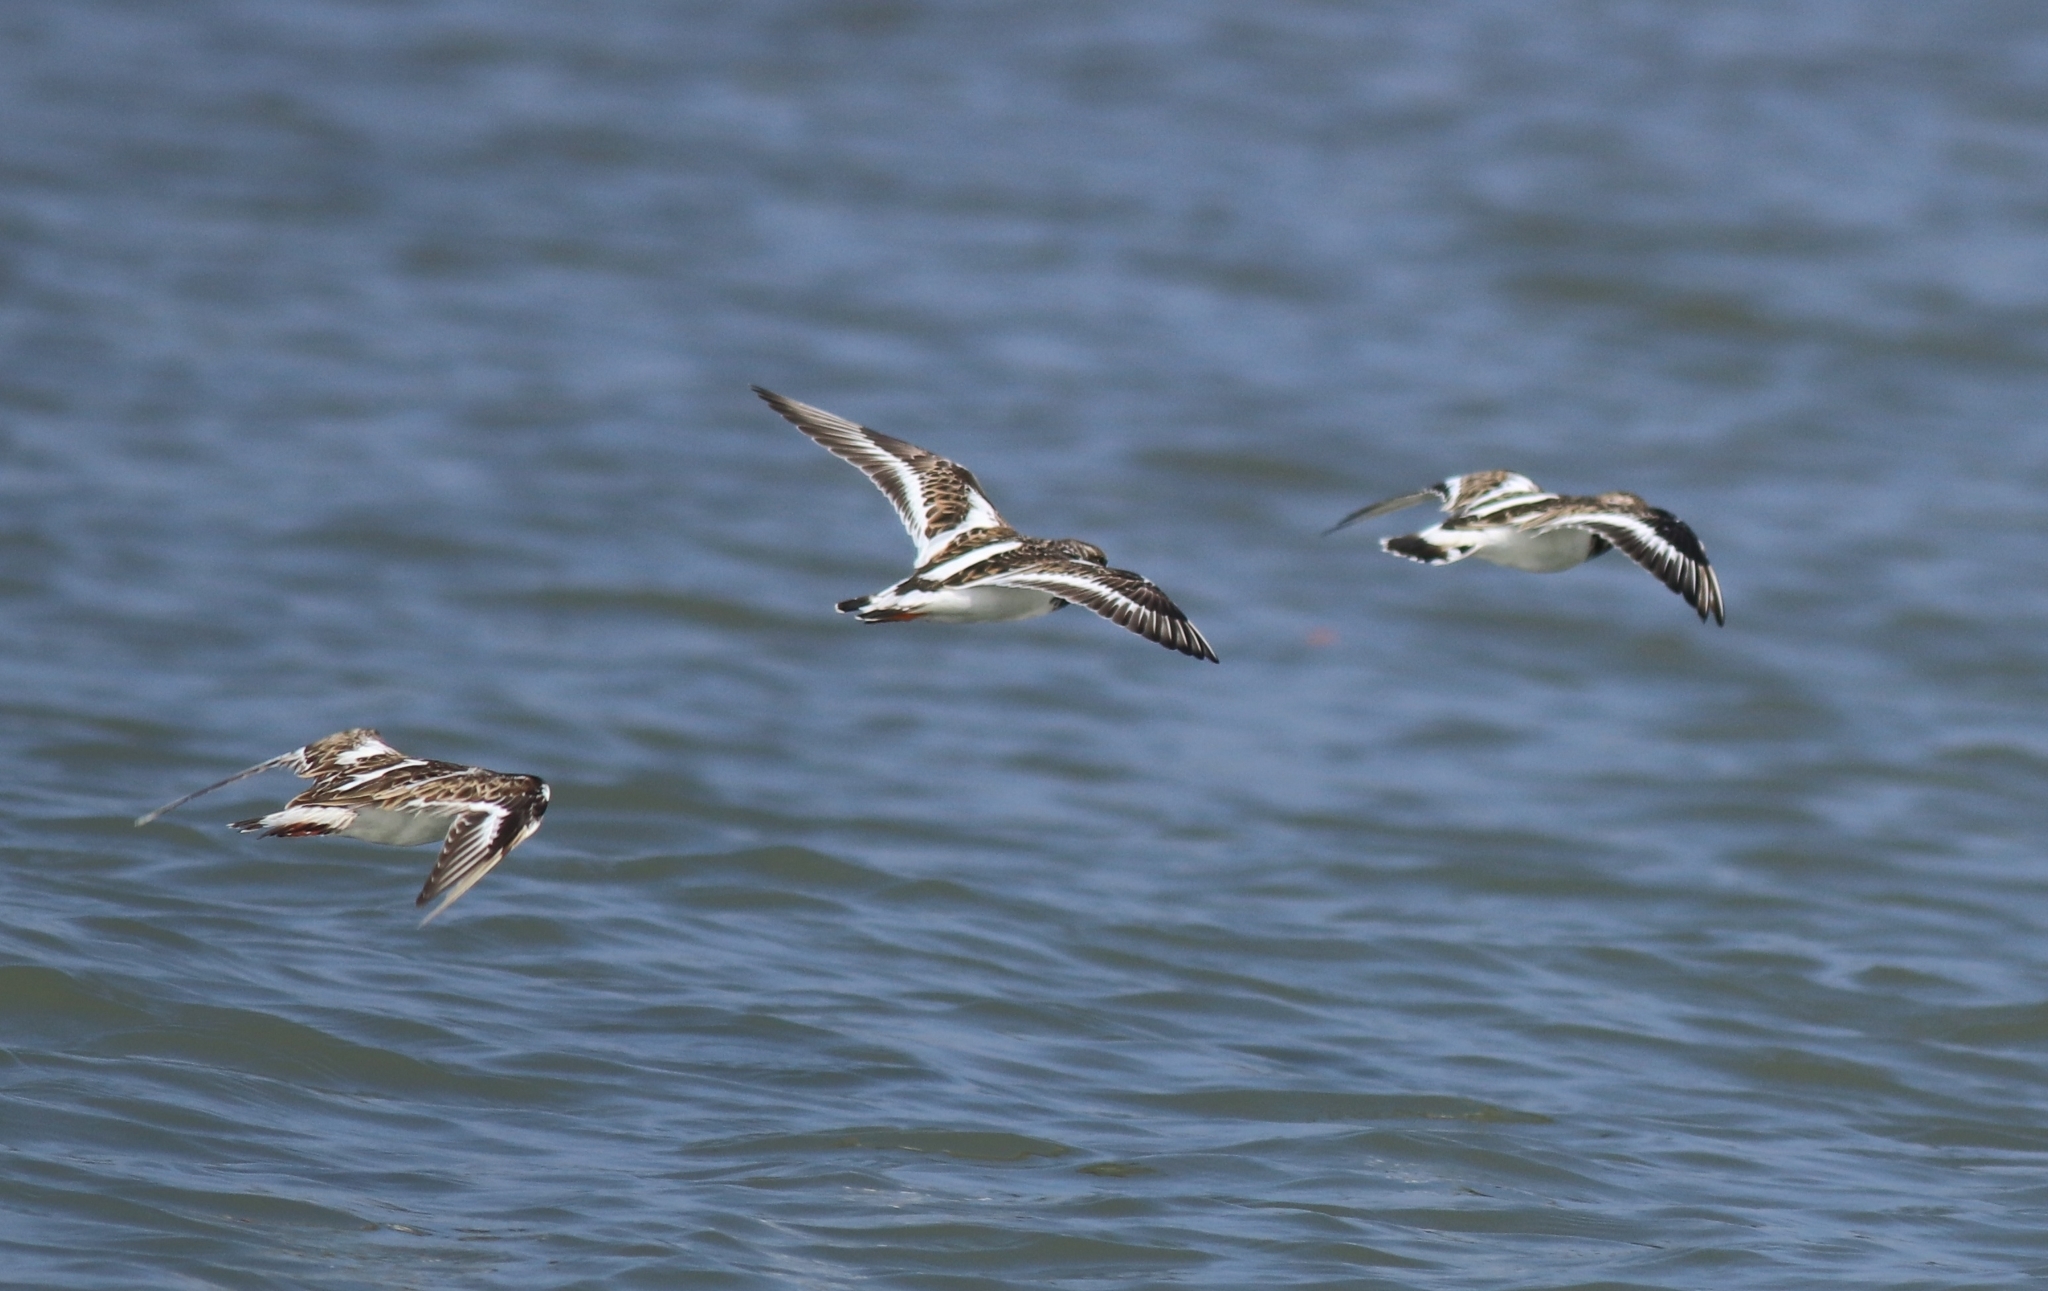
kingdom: Animalia
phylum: Chordata
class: Aves
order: Charadriiformes
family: Scolopacidae
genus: Arenaria
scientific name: Arenaria interpres
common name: Ruddy turnstone
